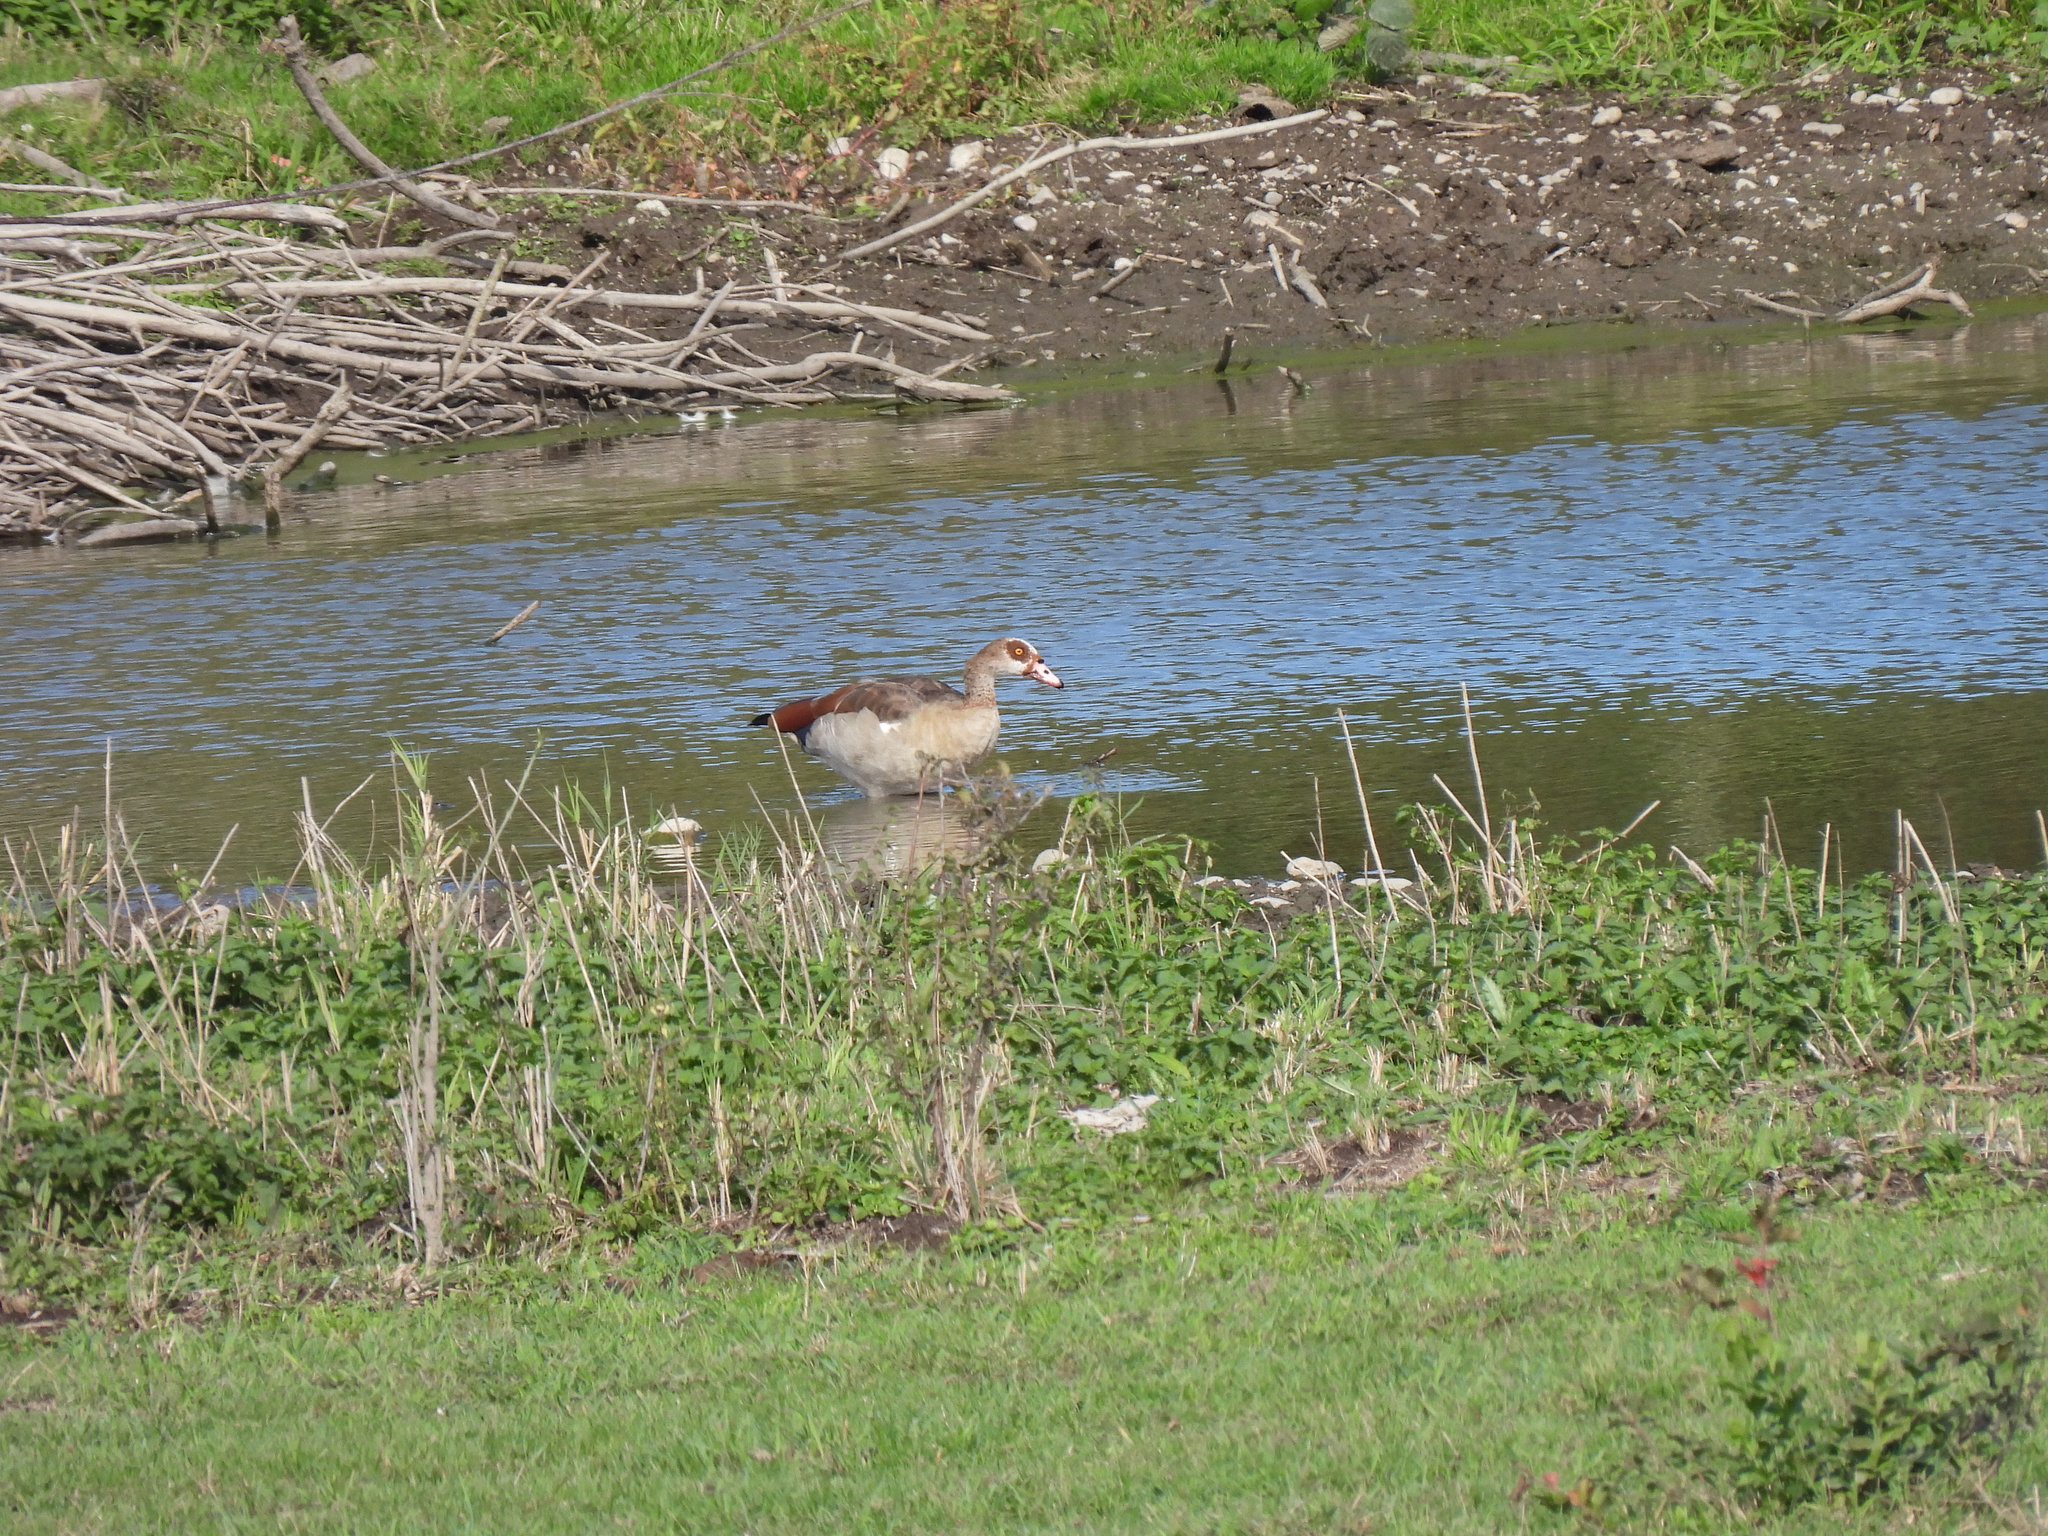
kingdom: Animalia
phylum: Chordata
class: Aves
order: Anseriformes
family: Anatidae
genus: Alopochen
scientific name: Alopochen aegyptiaca
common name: Egyptian goose
